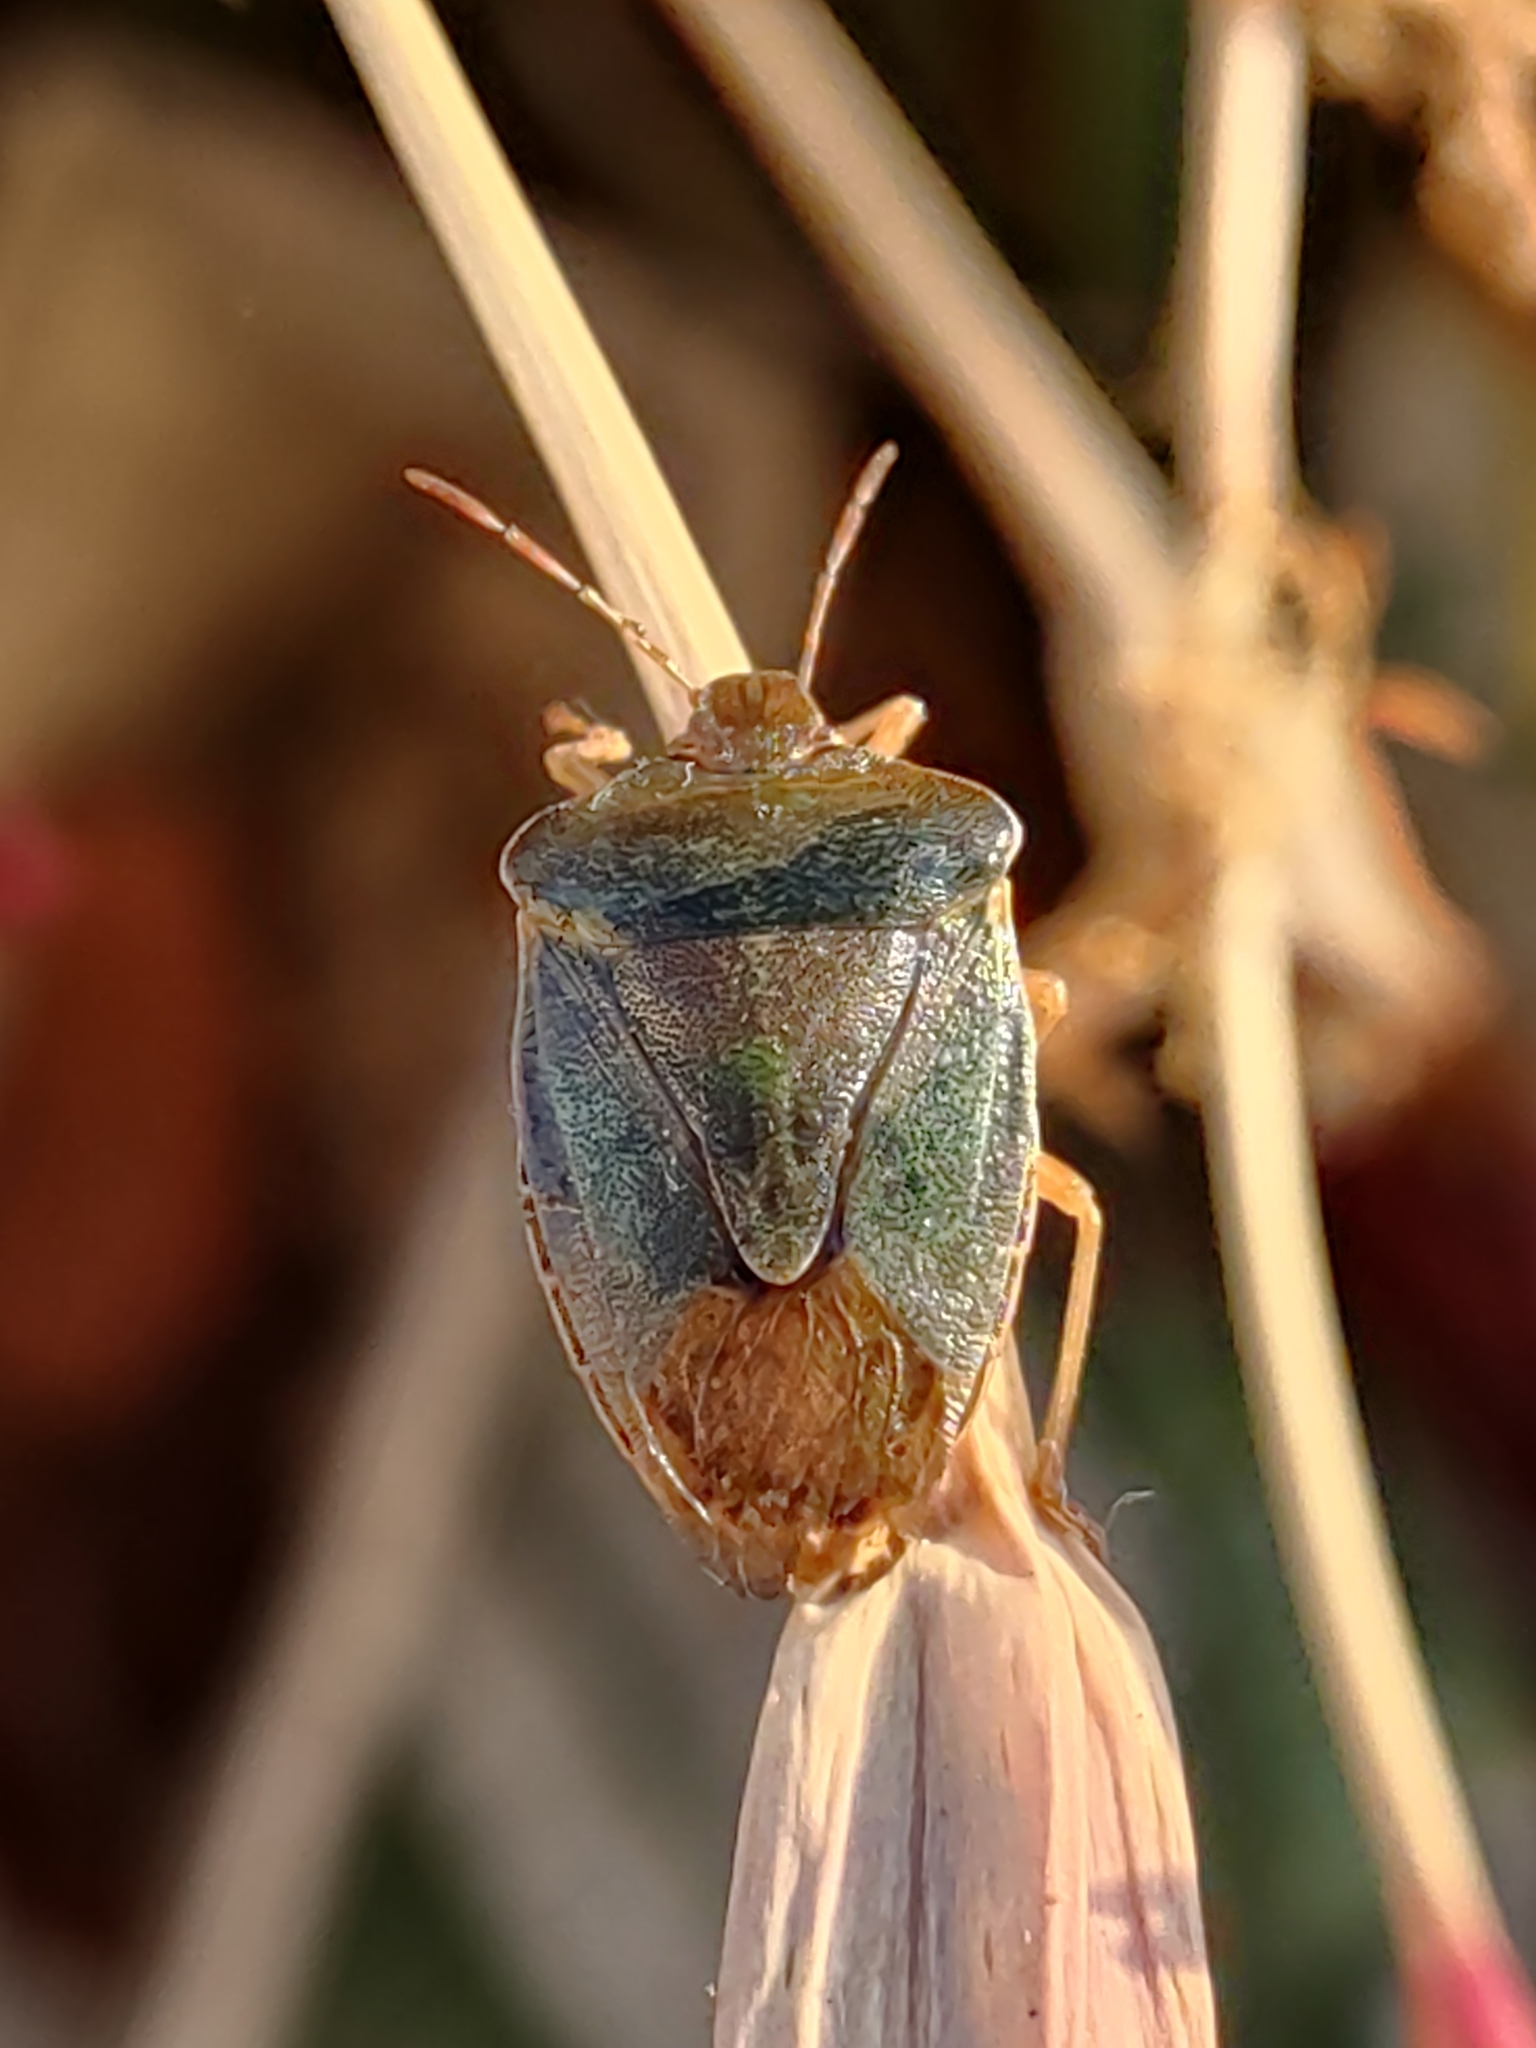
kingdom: Animalia
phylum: Arthropoda
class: Insecta
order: Hemiptera
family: Pentatomidae
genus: Palomena
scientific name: Palomena prasina
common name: Green shieldbug
